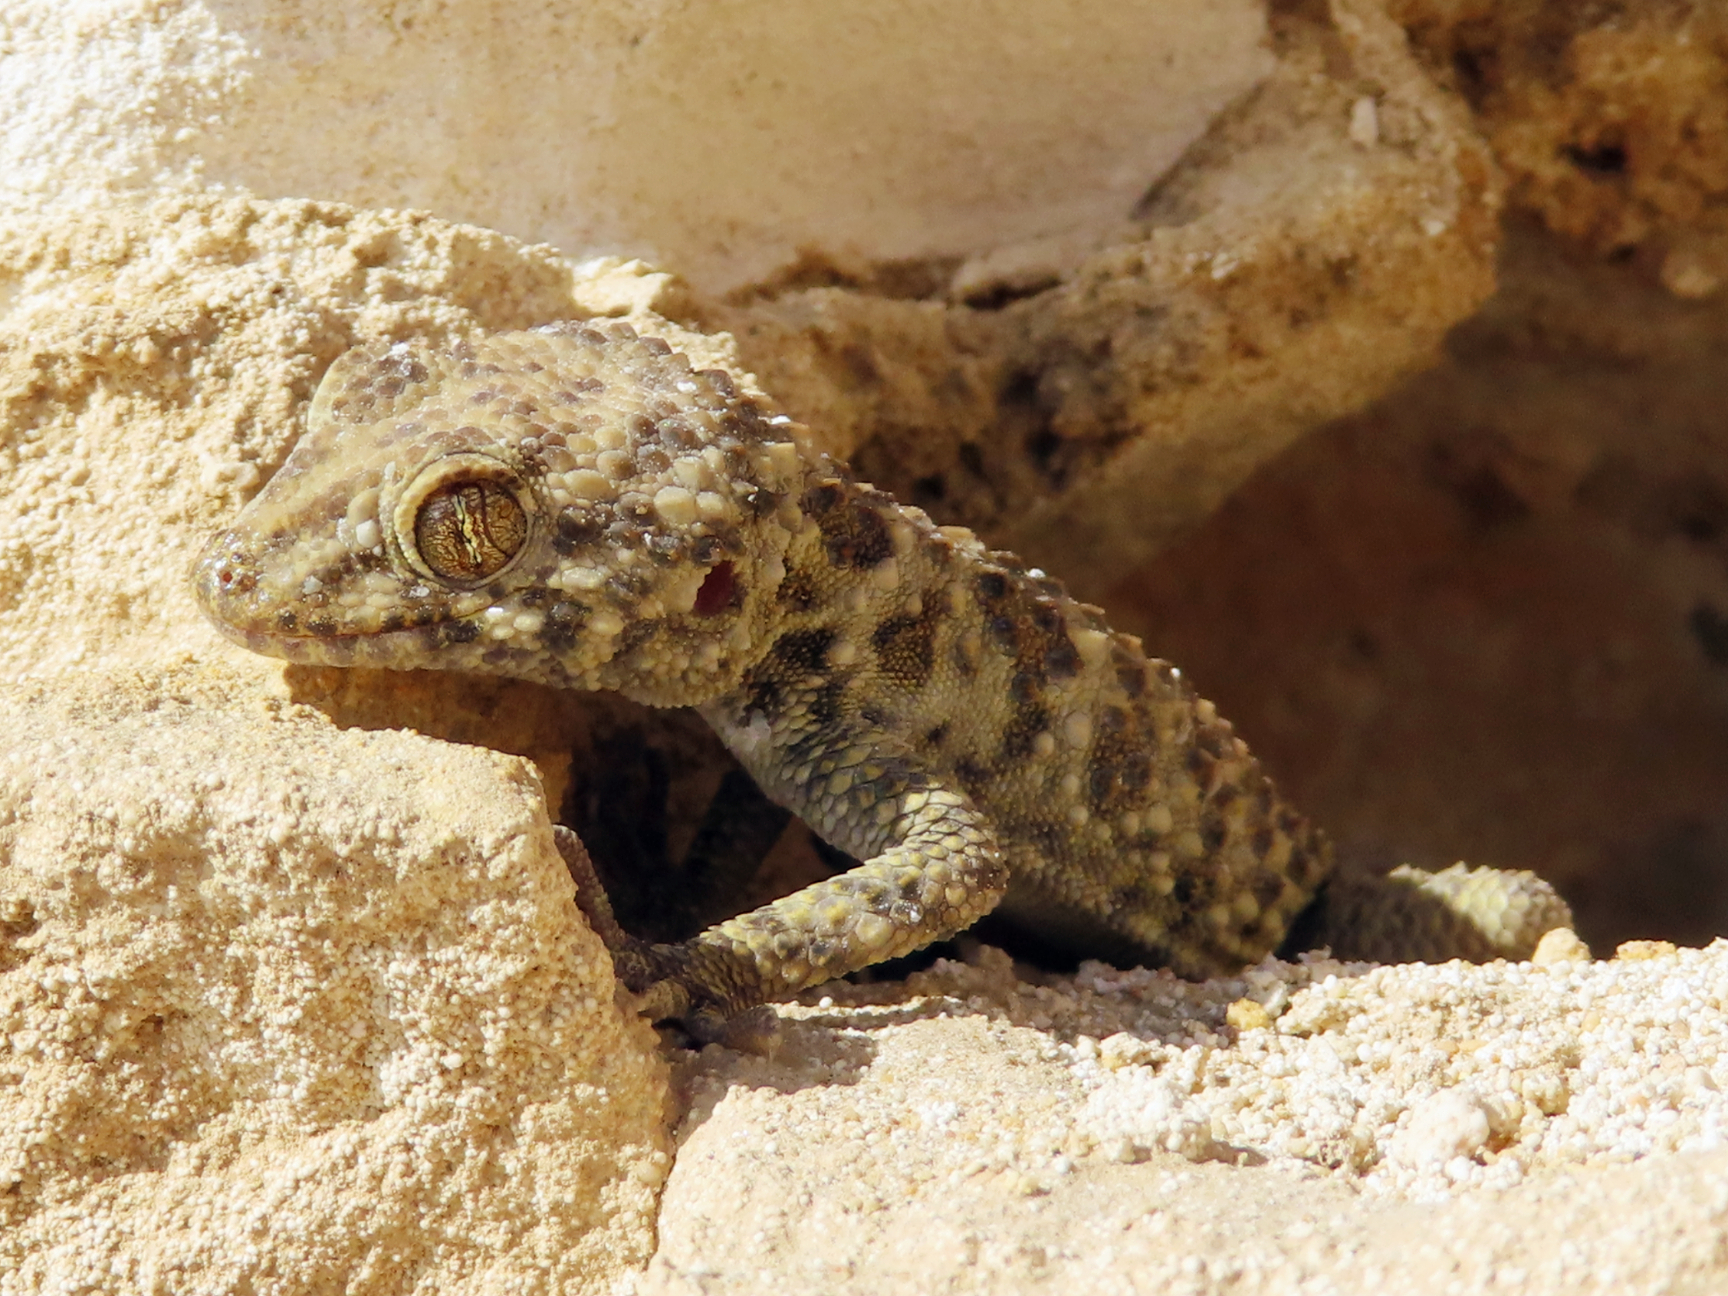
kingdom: Animalia
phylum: Chordata
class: Squamata
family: Gekkonidae
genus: Tenuidactylus
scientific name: Tenuidactylus caspius
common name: Caspian bent-toed gecko
